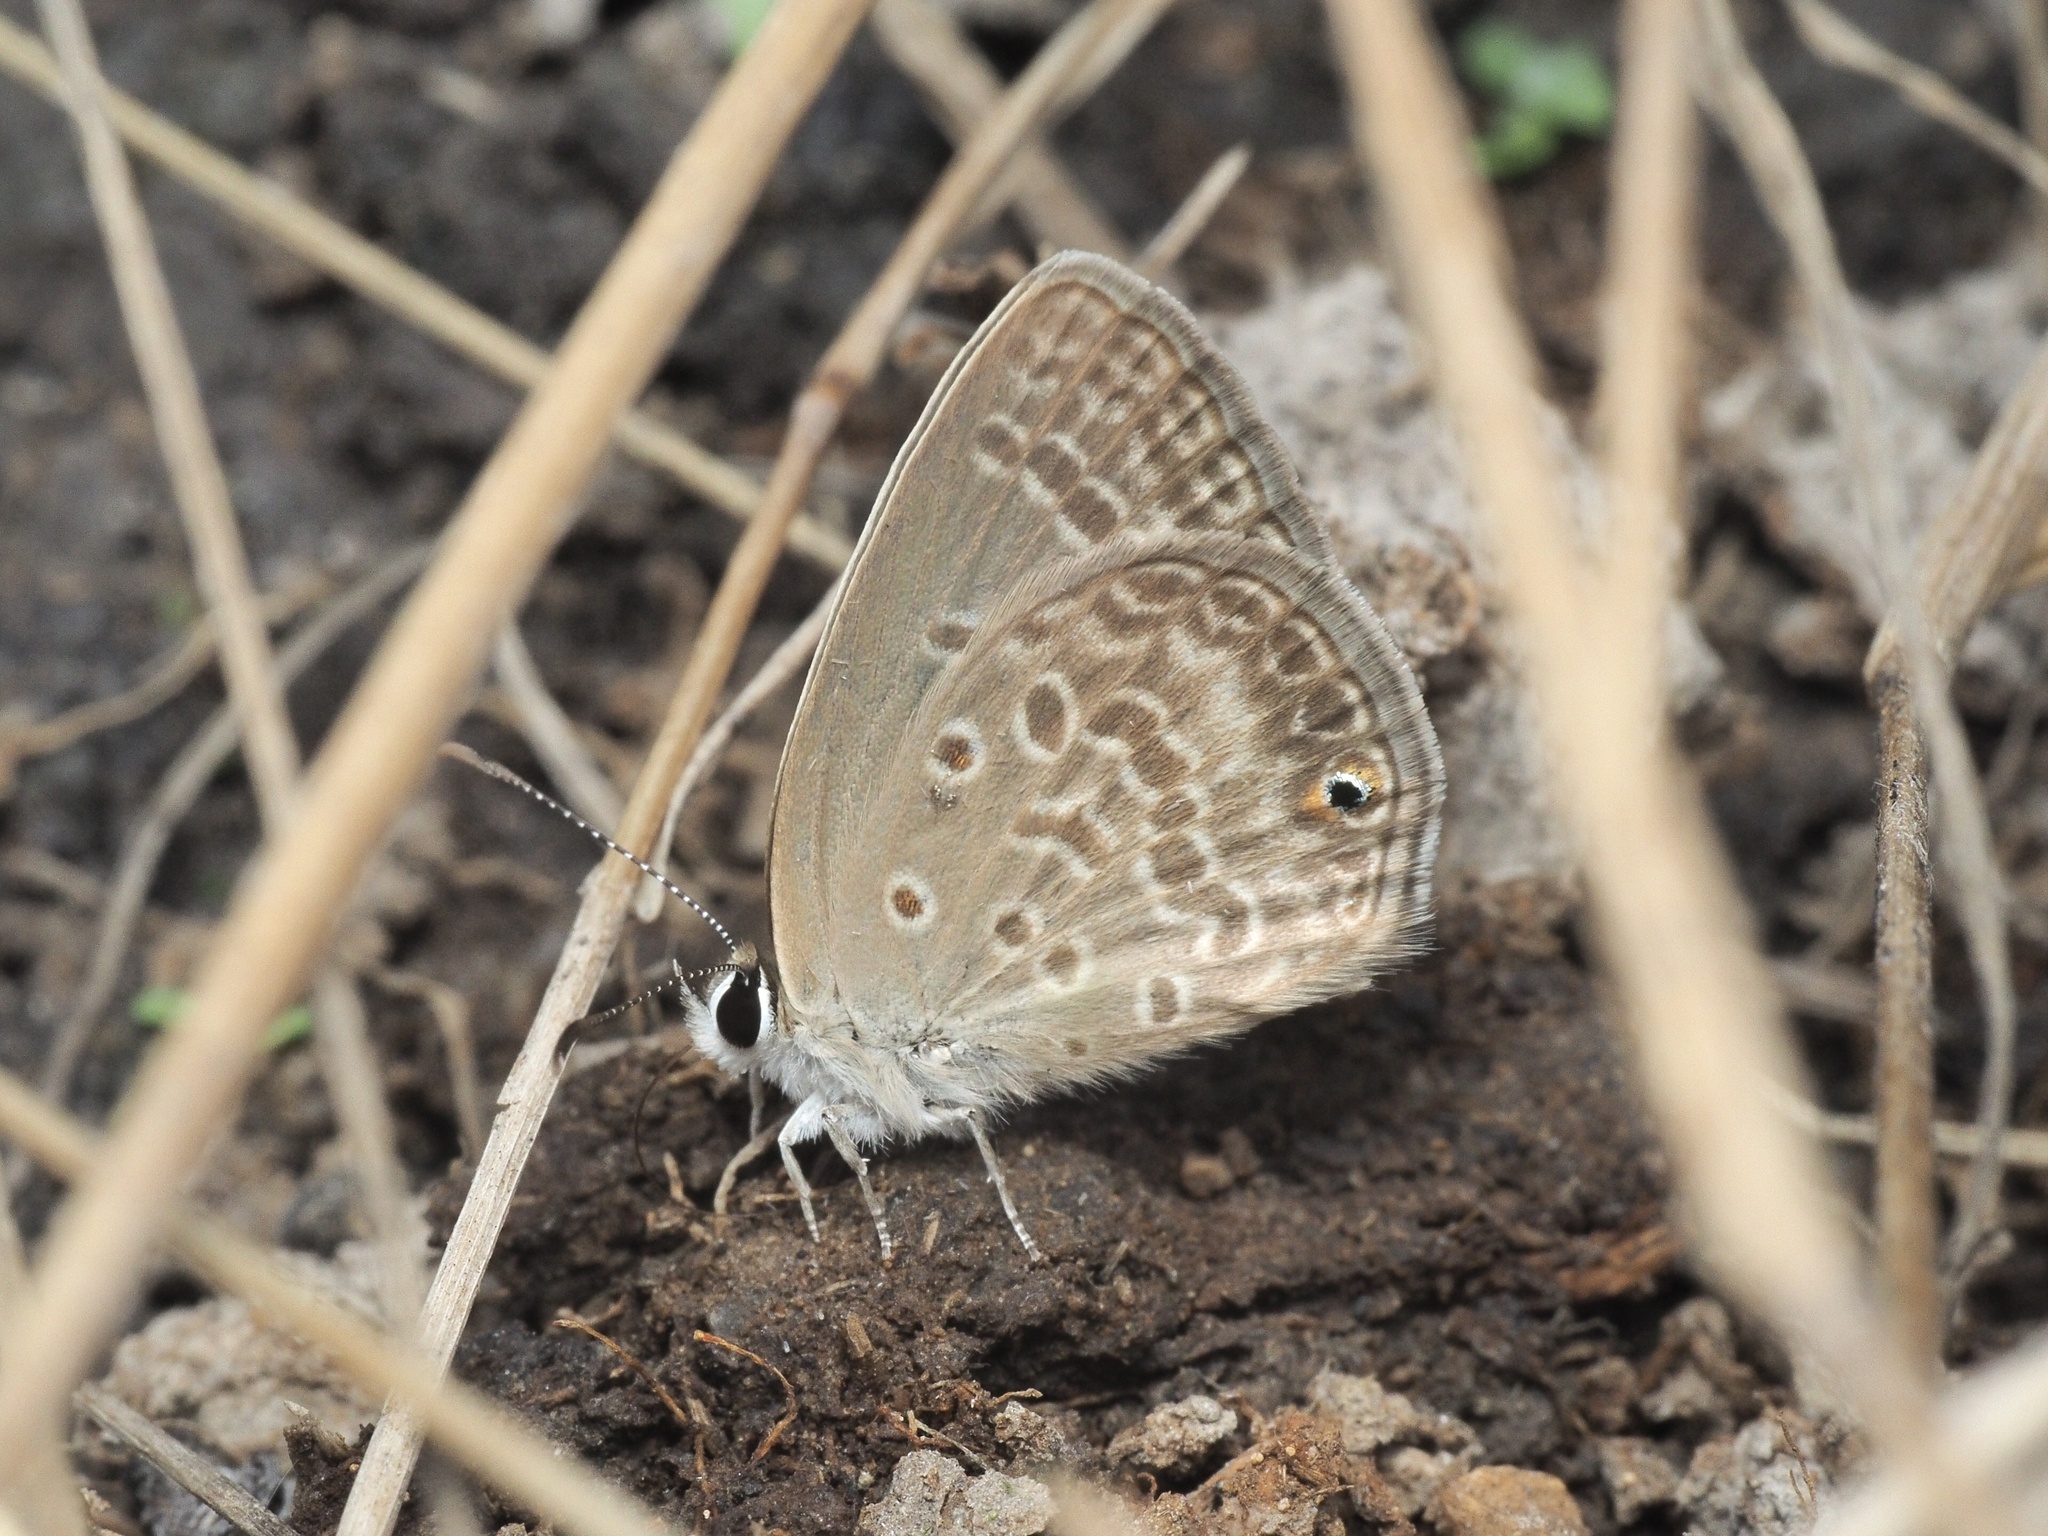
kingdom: Animalia
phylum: Arthropoda
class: Insecta
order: Lepidoptera
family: Lycaenidae
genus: Euchrysops
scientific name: Euchrysops malathana
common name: Common smoky blue
